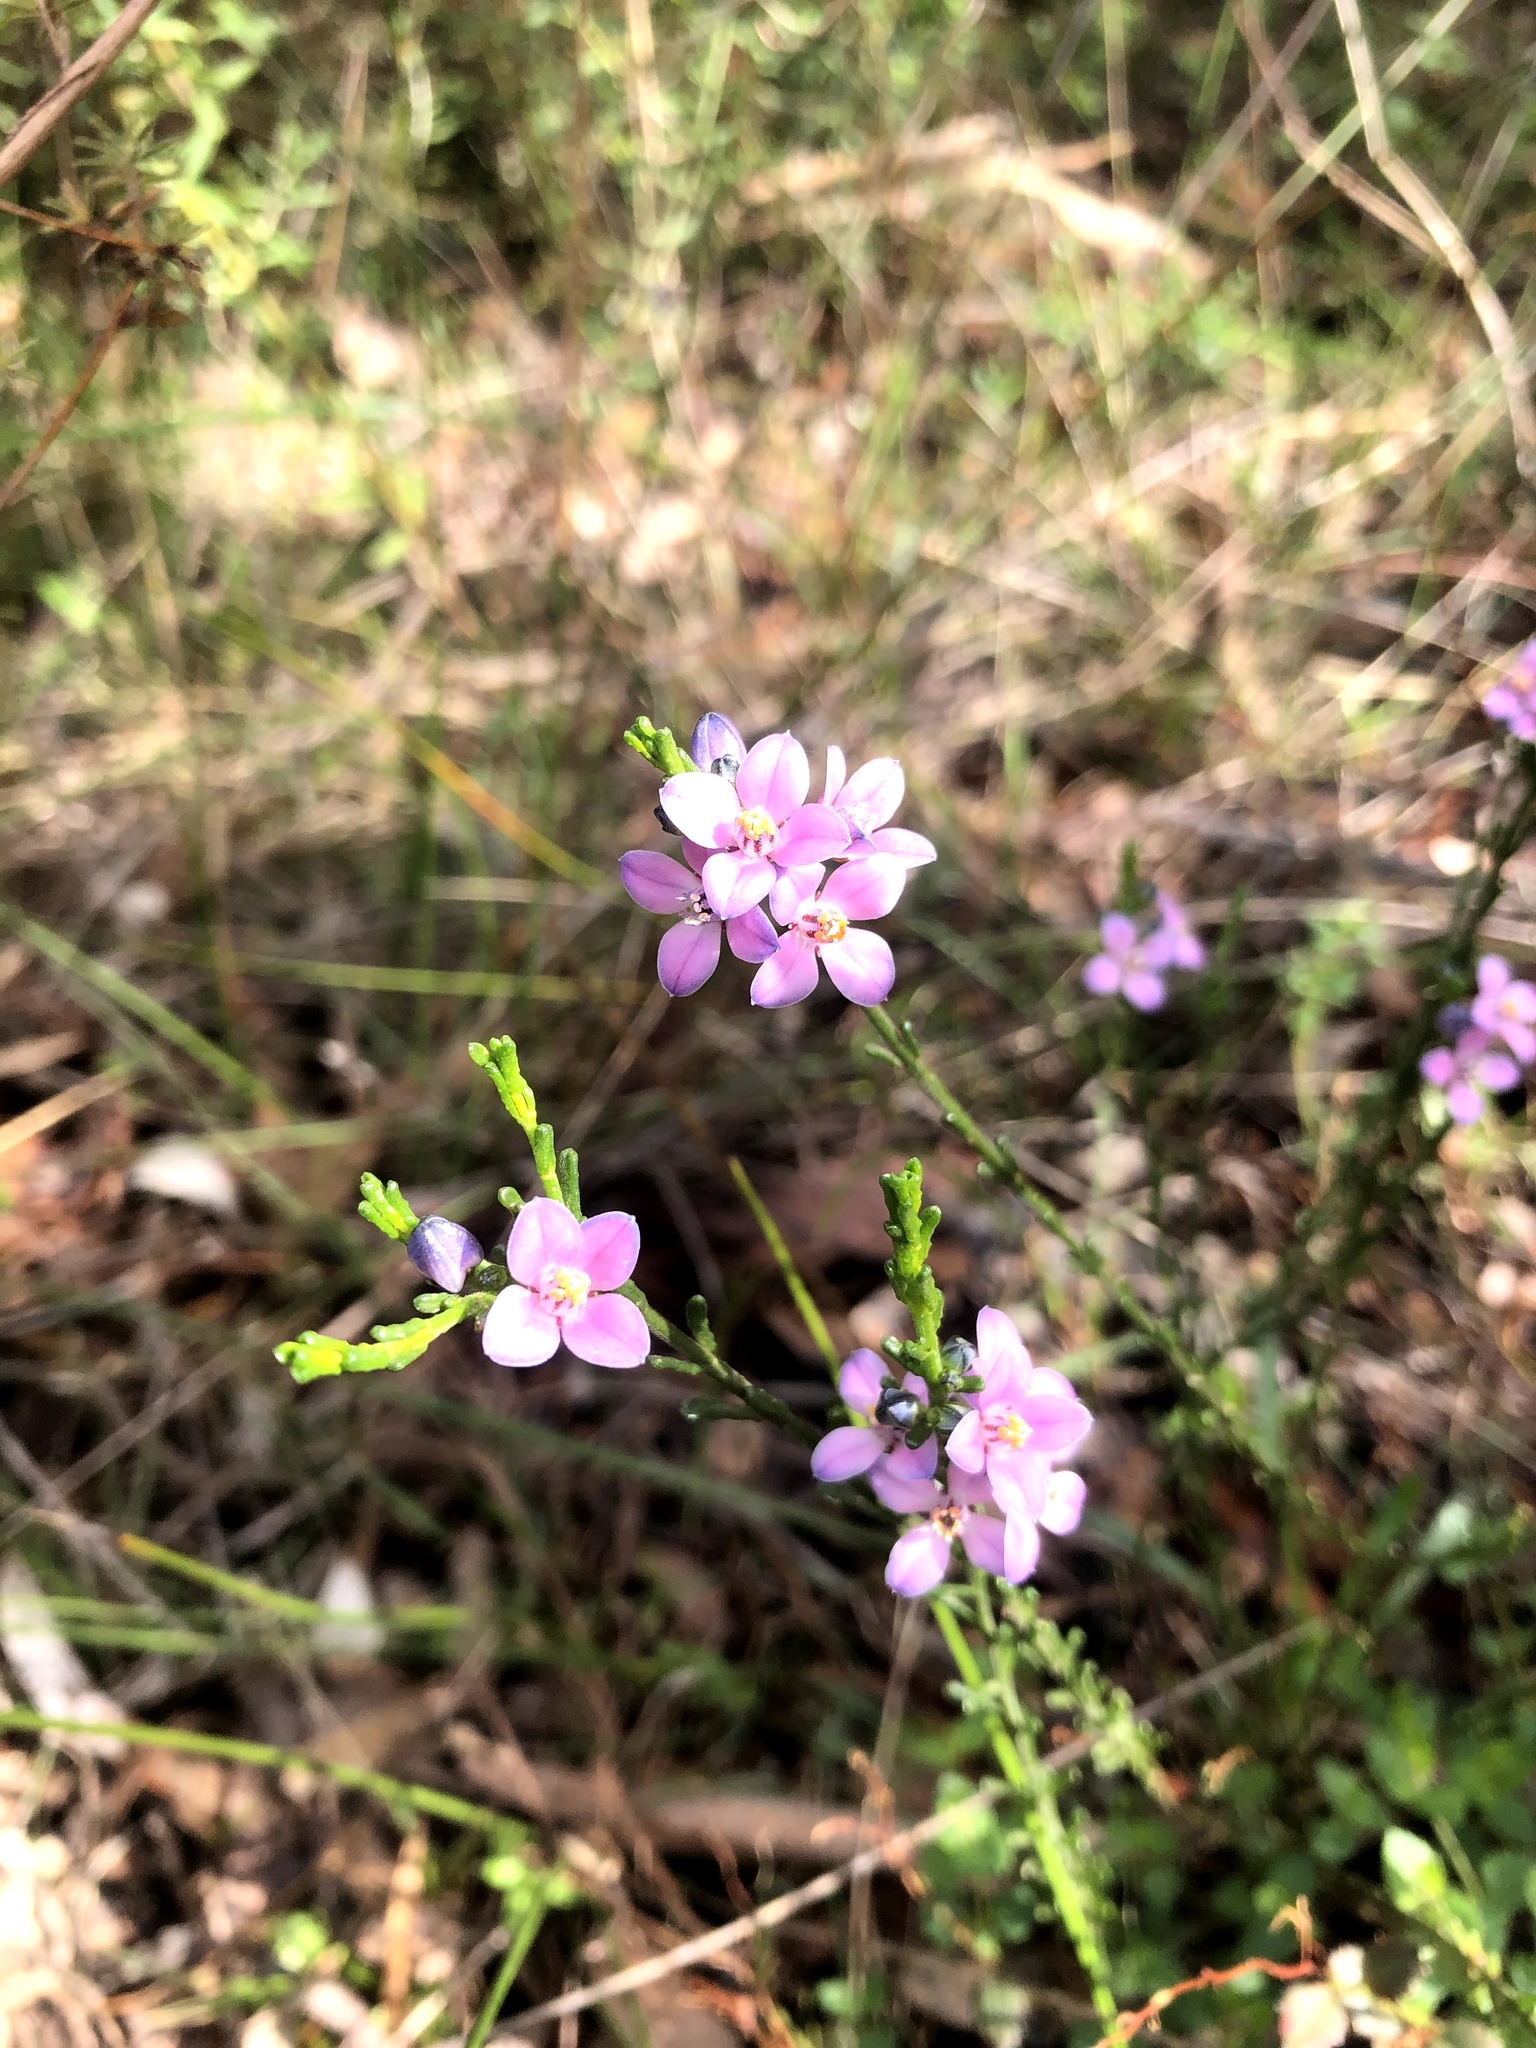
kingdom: Plantae
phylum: Tracheophyta
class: Magnoliopsida
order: Sapindales
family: Rutaceae
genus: Cyanothamnus
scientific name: Cyanothamnus coerulescens
